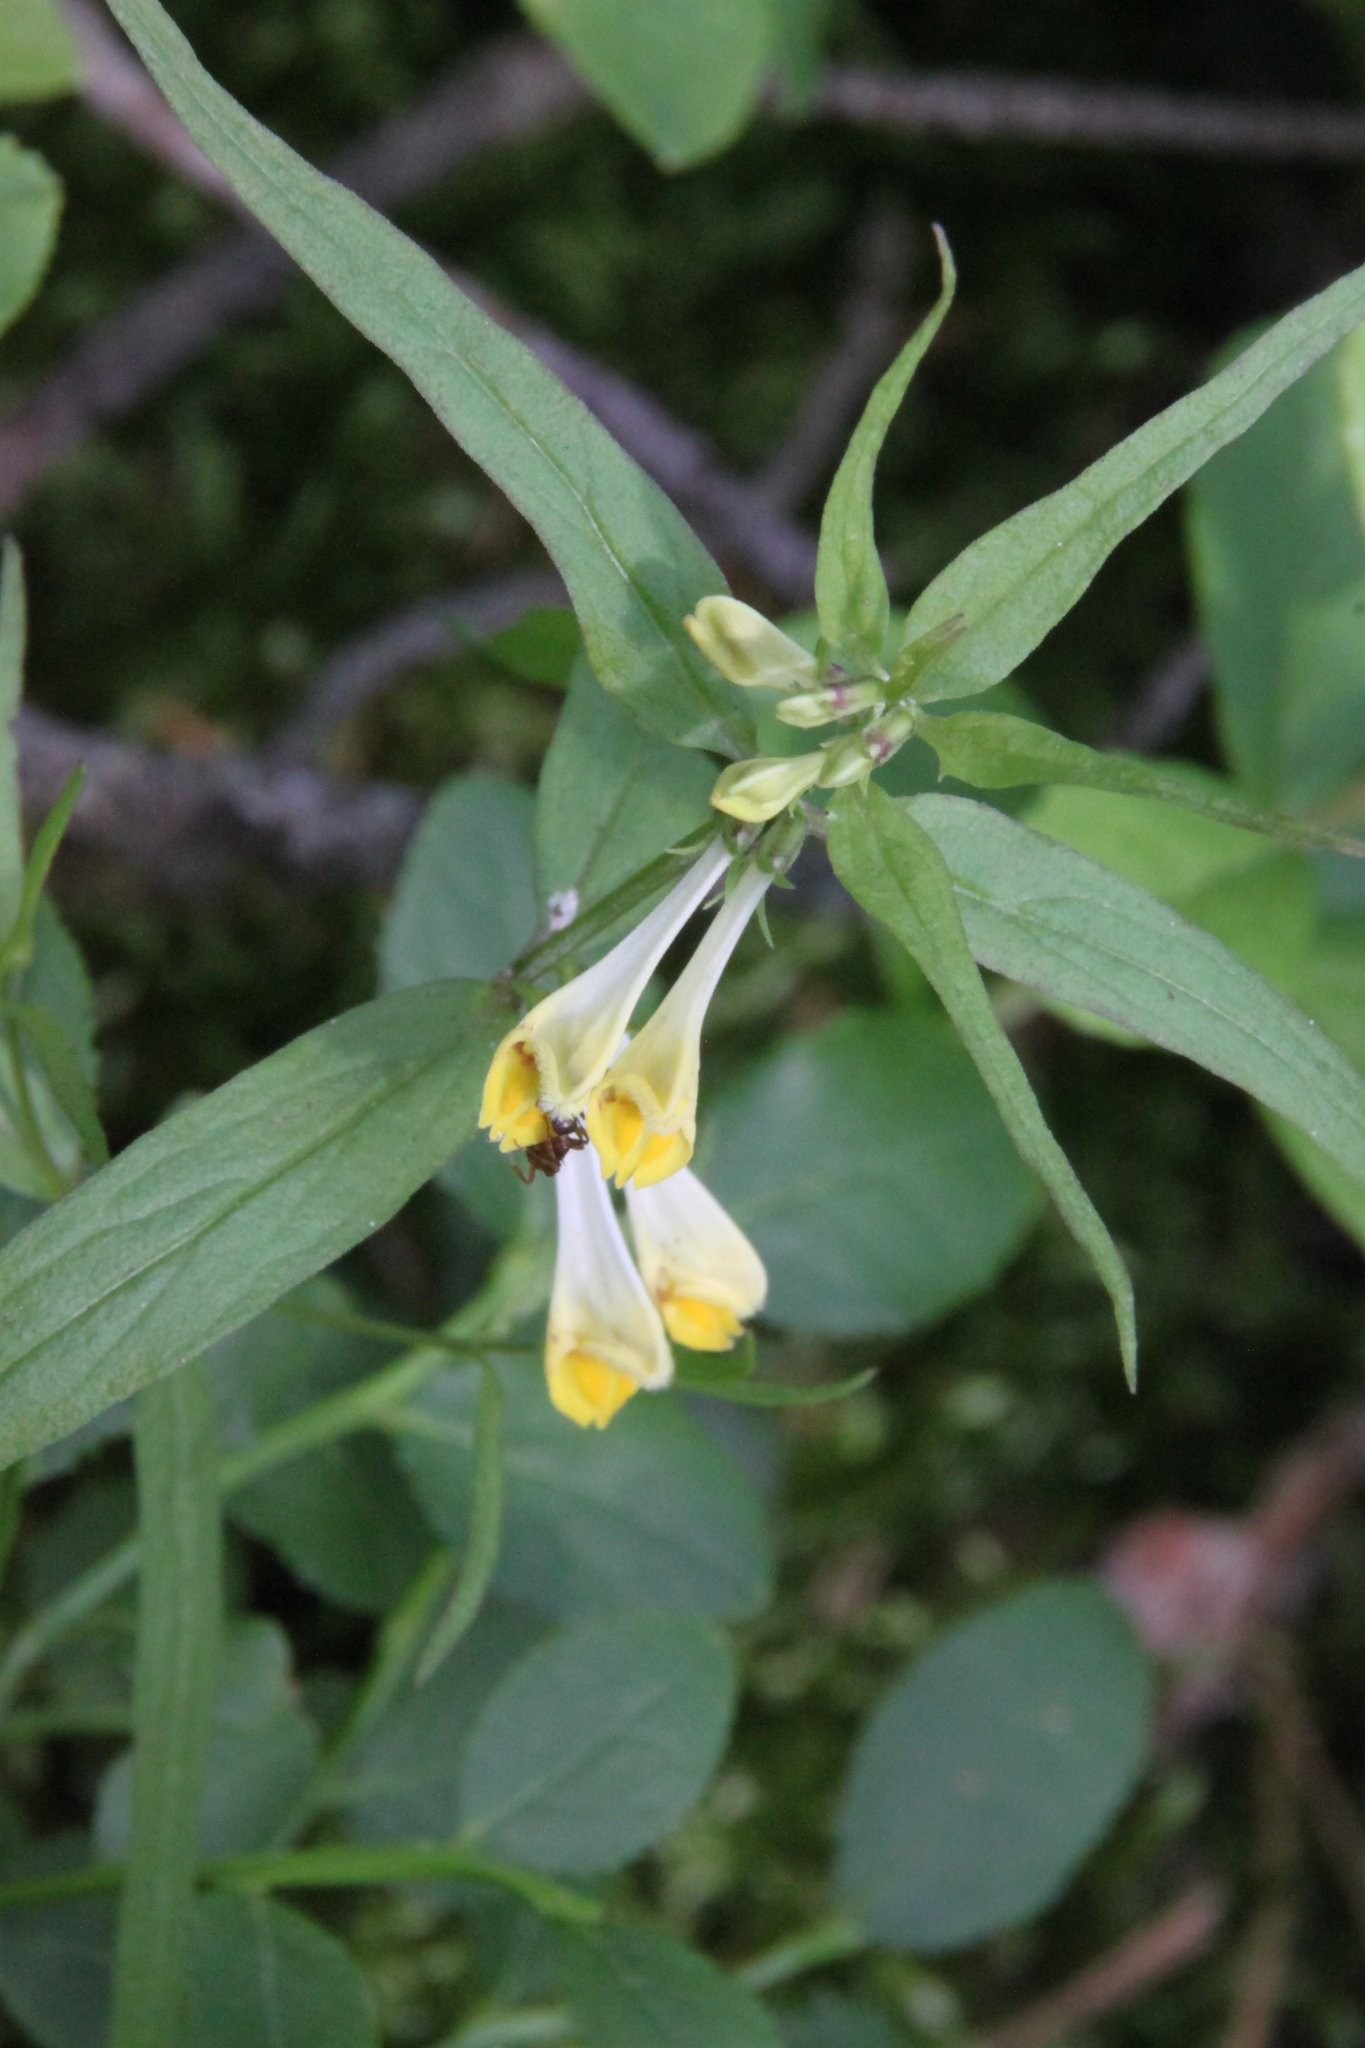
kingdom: Plantae
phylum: Tracheophyta
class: Magnoliopsida
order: Lamiales
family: Orobanchaceae
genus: Melampyrum
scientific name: Melampyrum pratense
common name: Common cow-wheat
